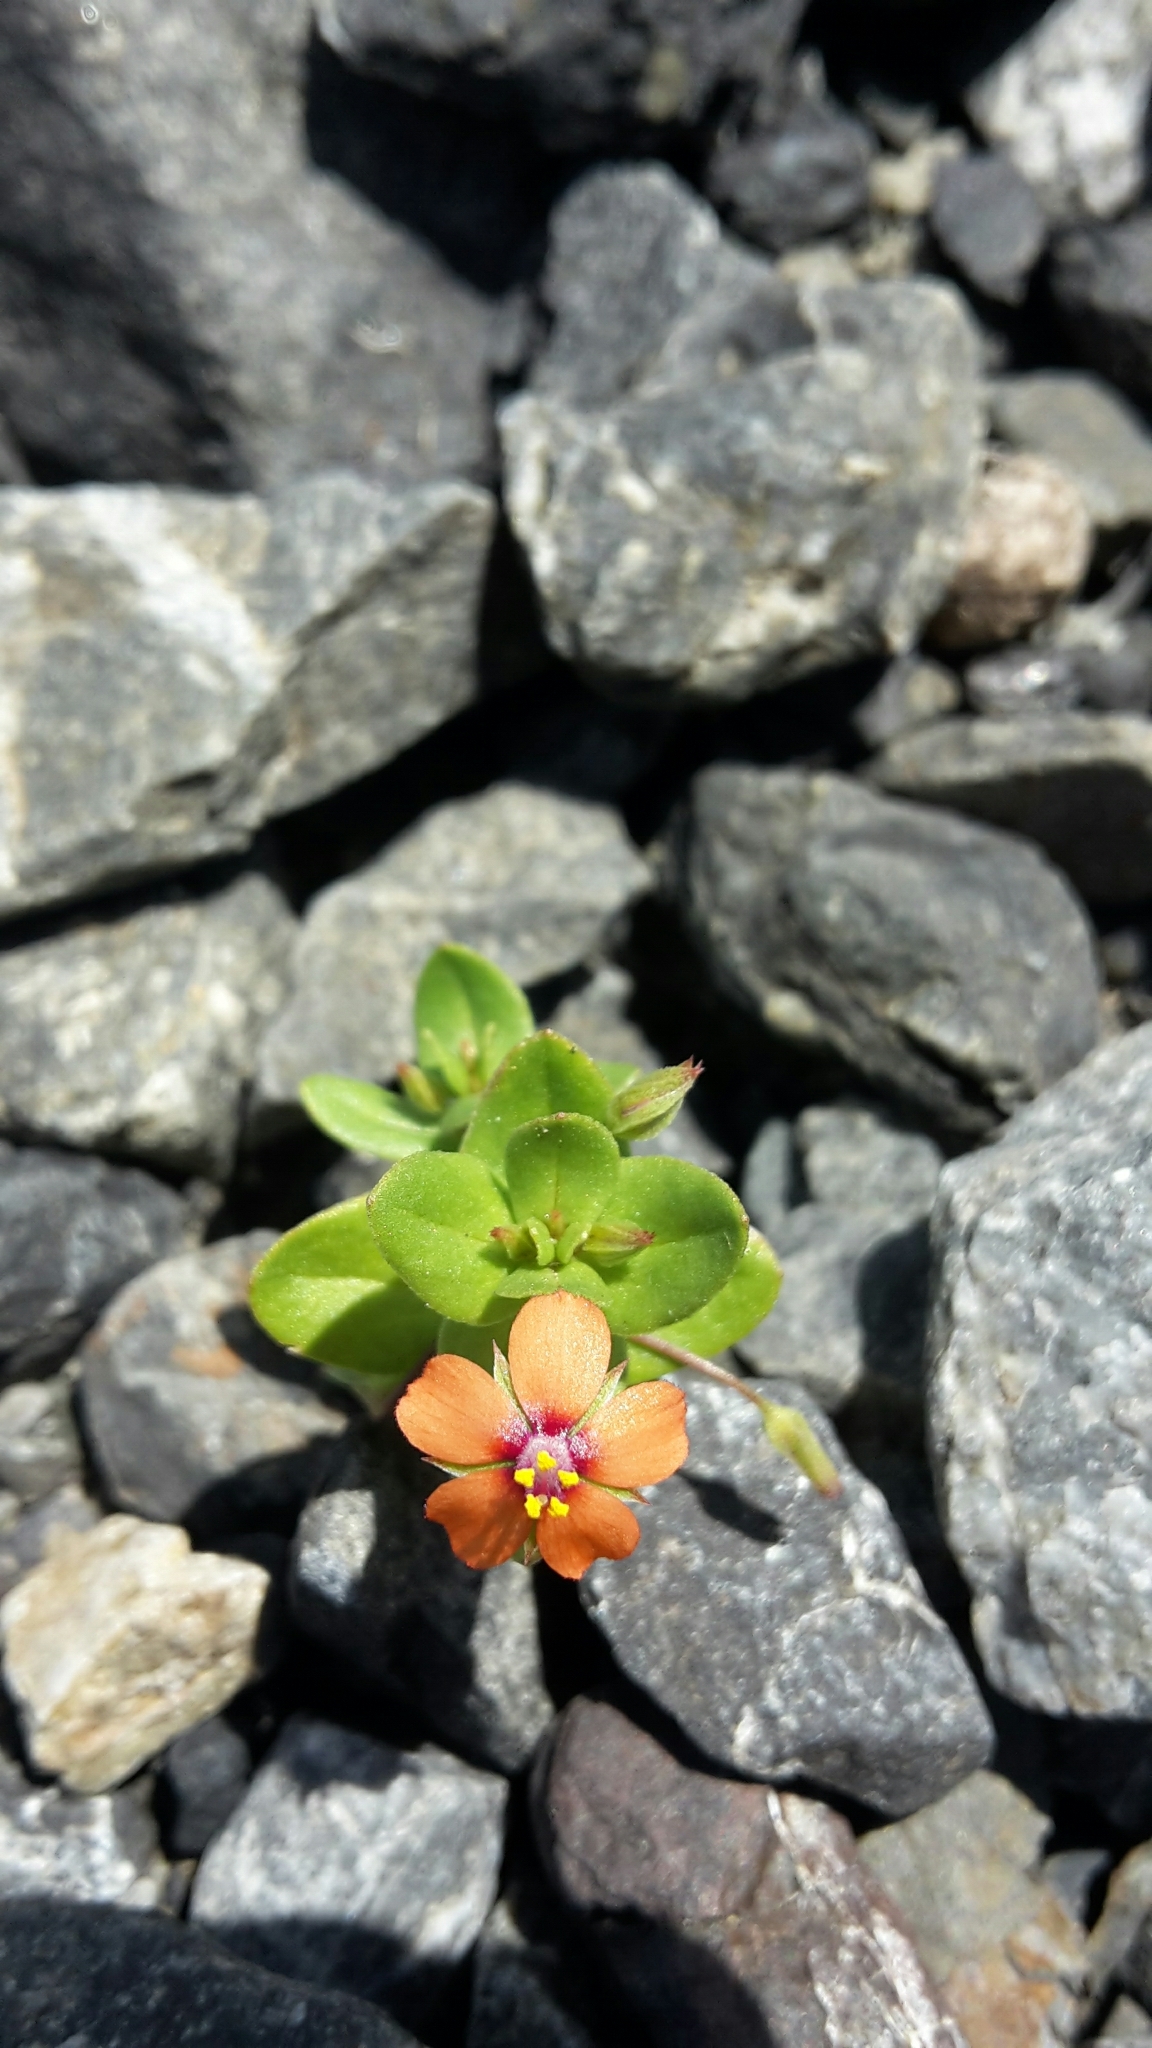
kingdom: Plantae
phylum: Tracheophyta
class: Magnoliopsida
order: Ericales
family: Primulaceae
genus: Lysimachia
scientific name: Lysimachia arvensis
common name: Scarlet pimpernel
